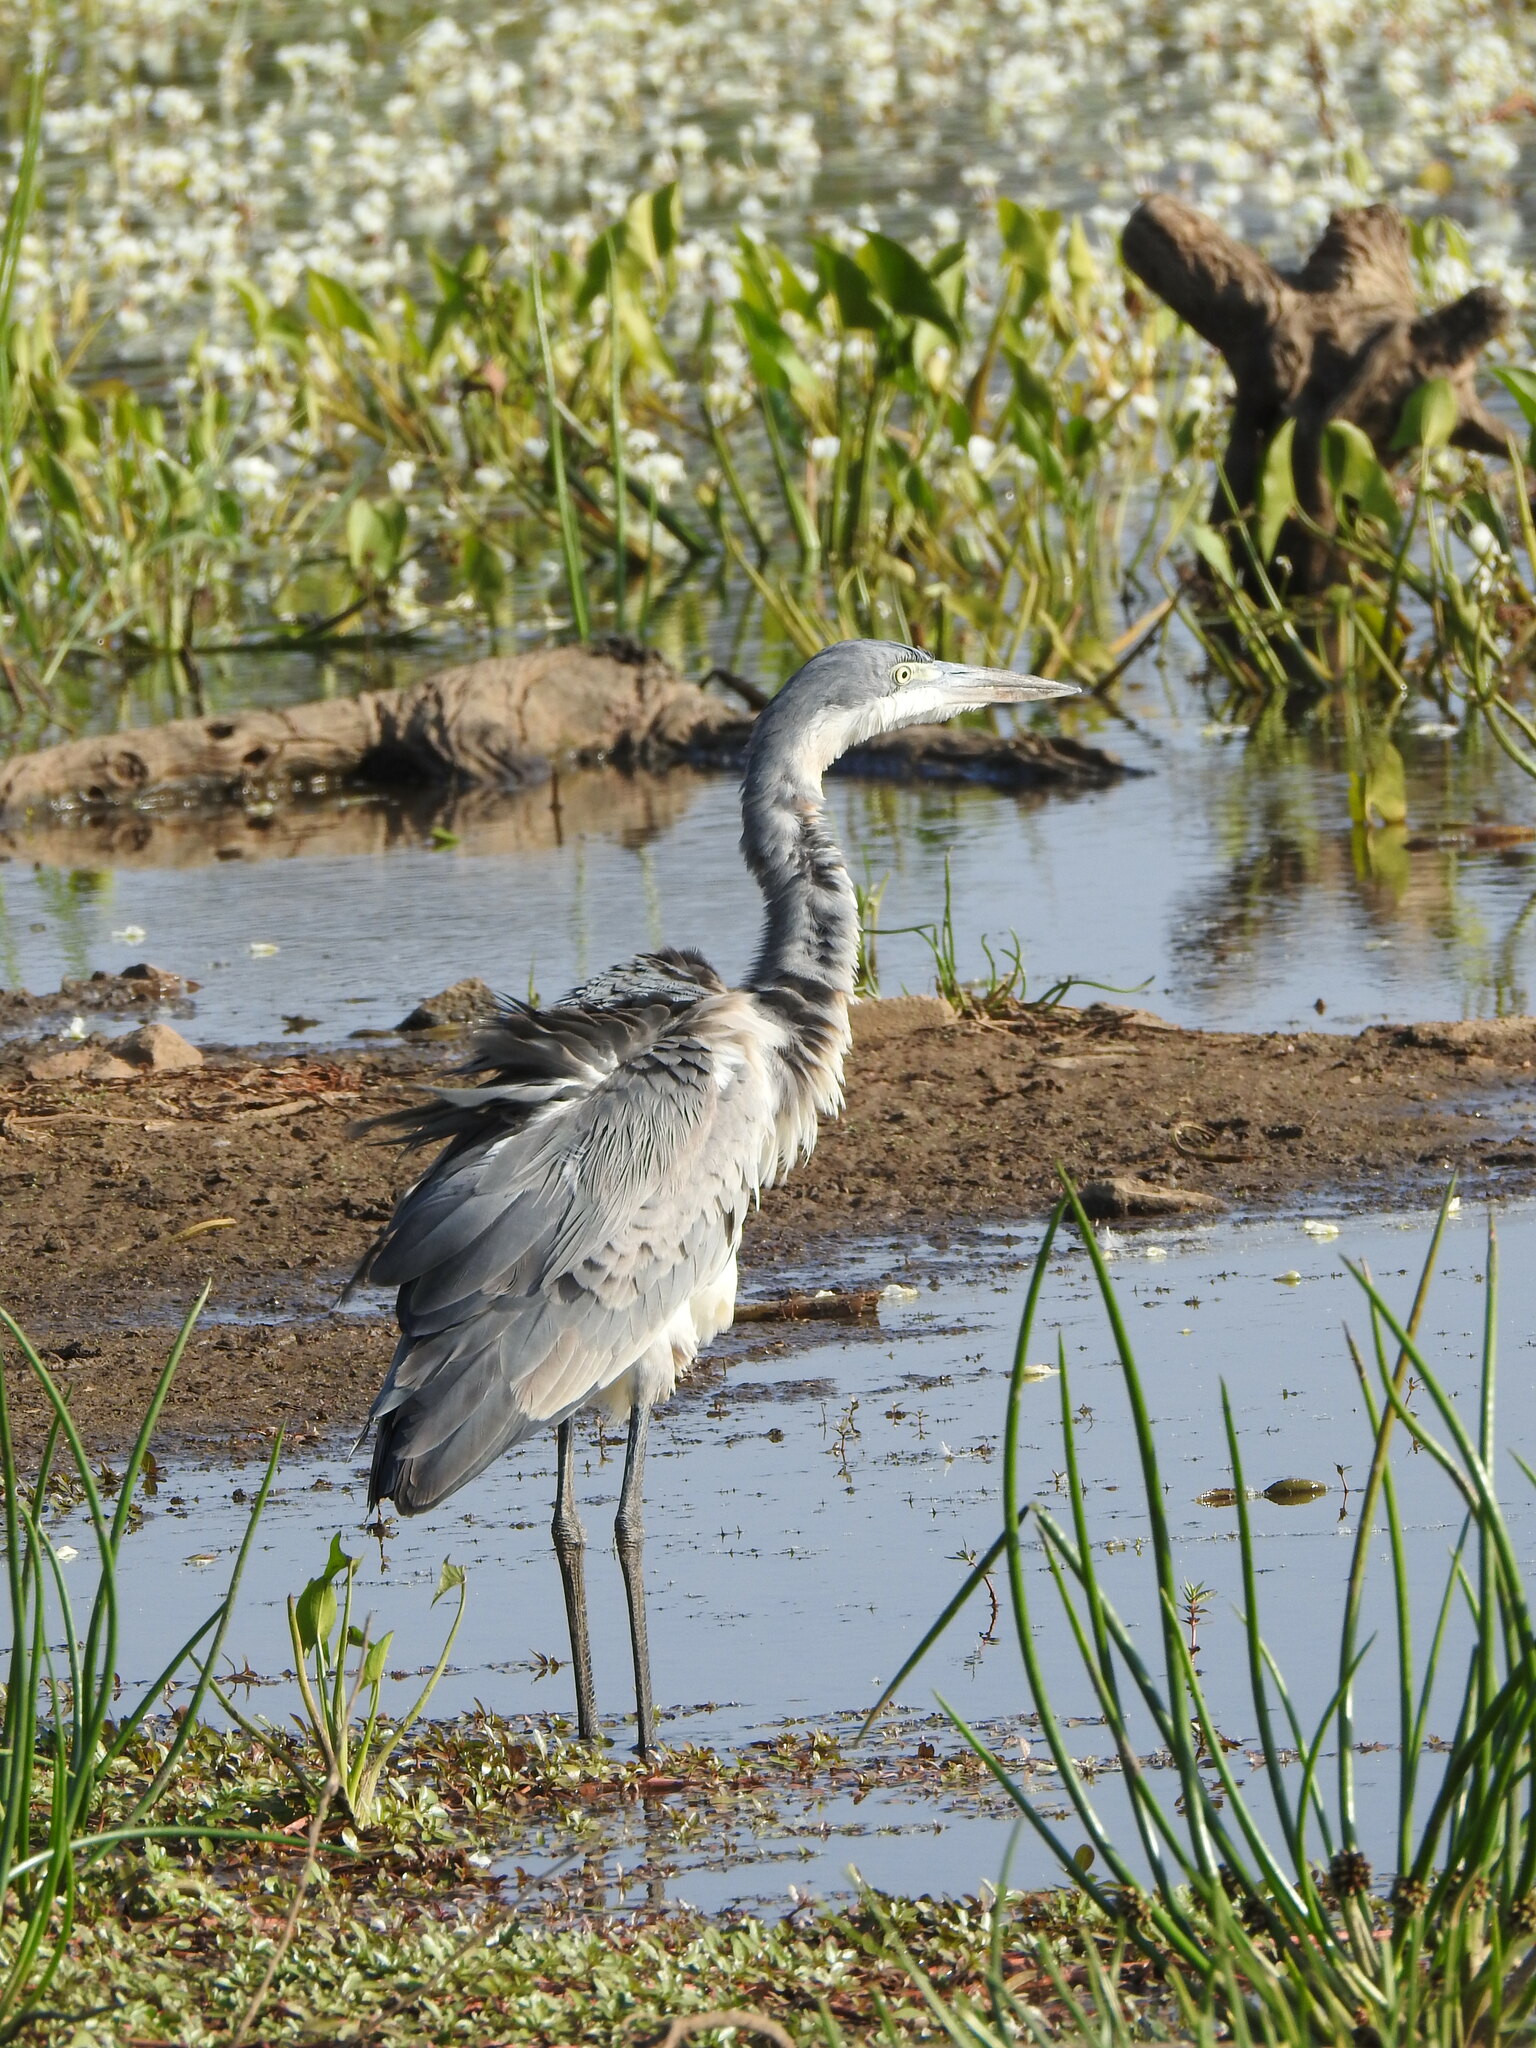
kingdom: Animalia
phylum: Chordata
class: Aves
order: Pelecaniformes
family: Ardeidae
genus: Ardea
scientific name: Ardea melanocephala
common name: Black-headed heron
